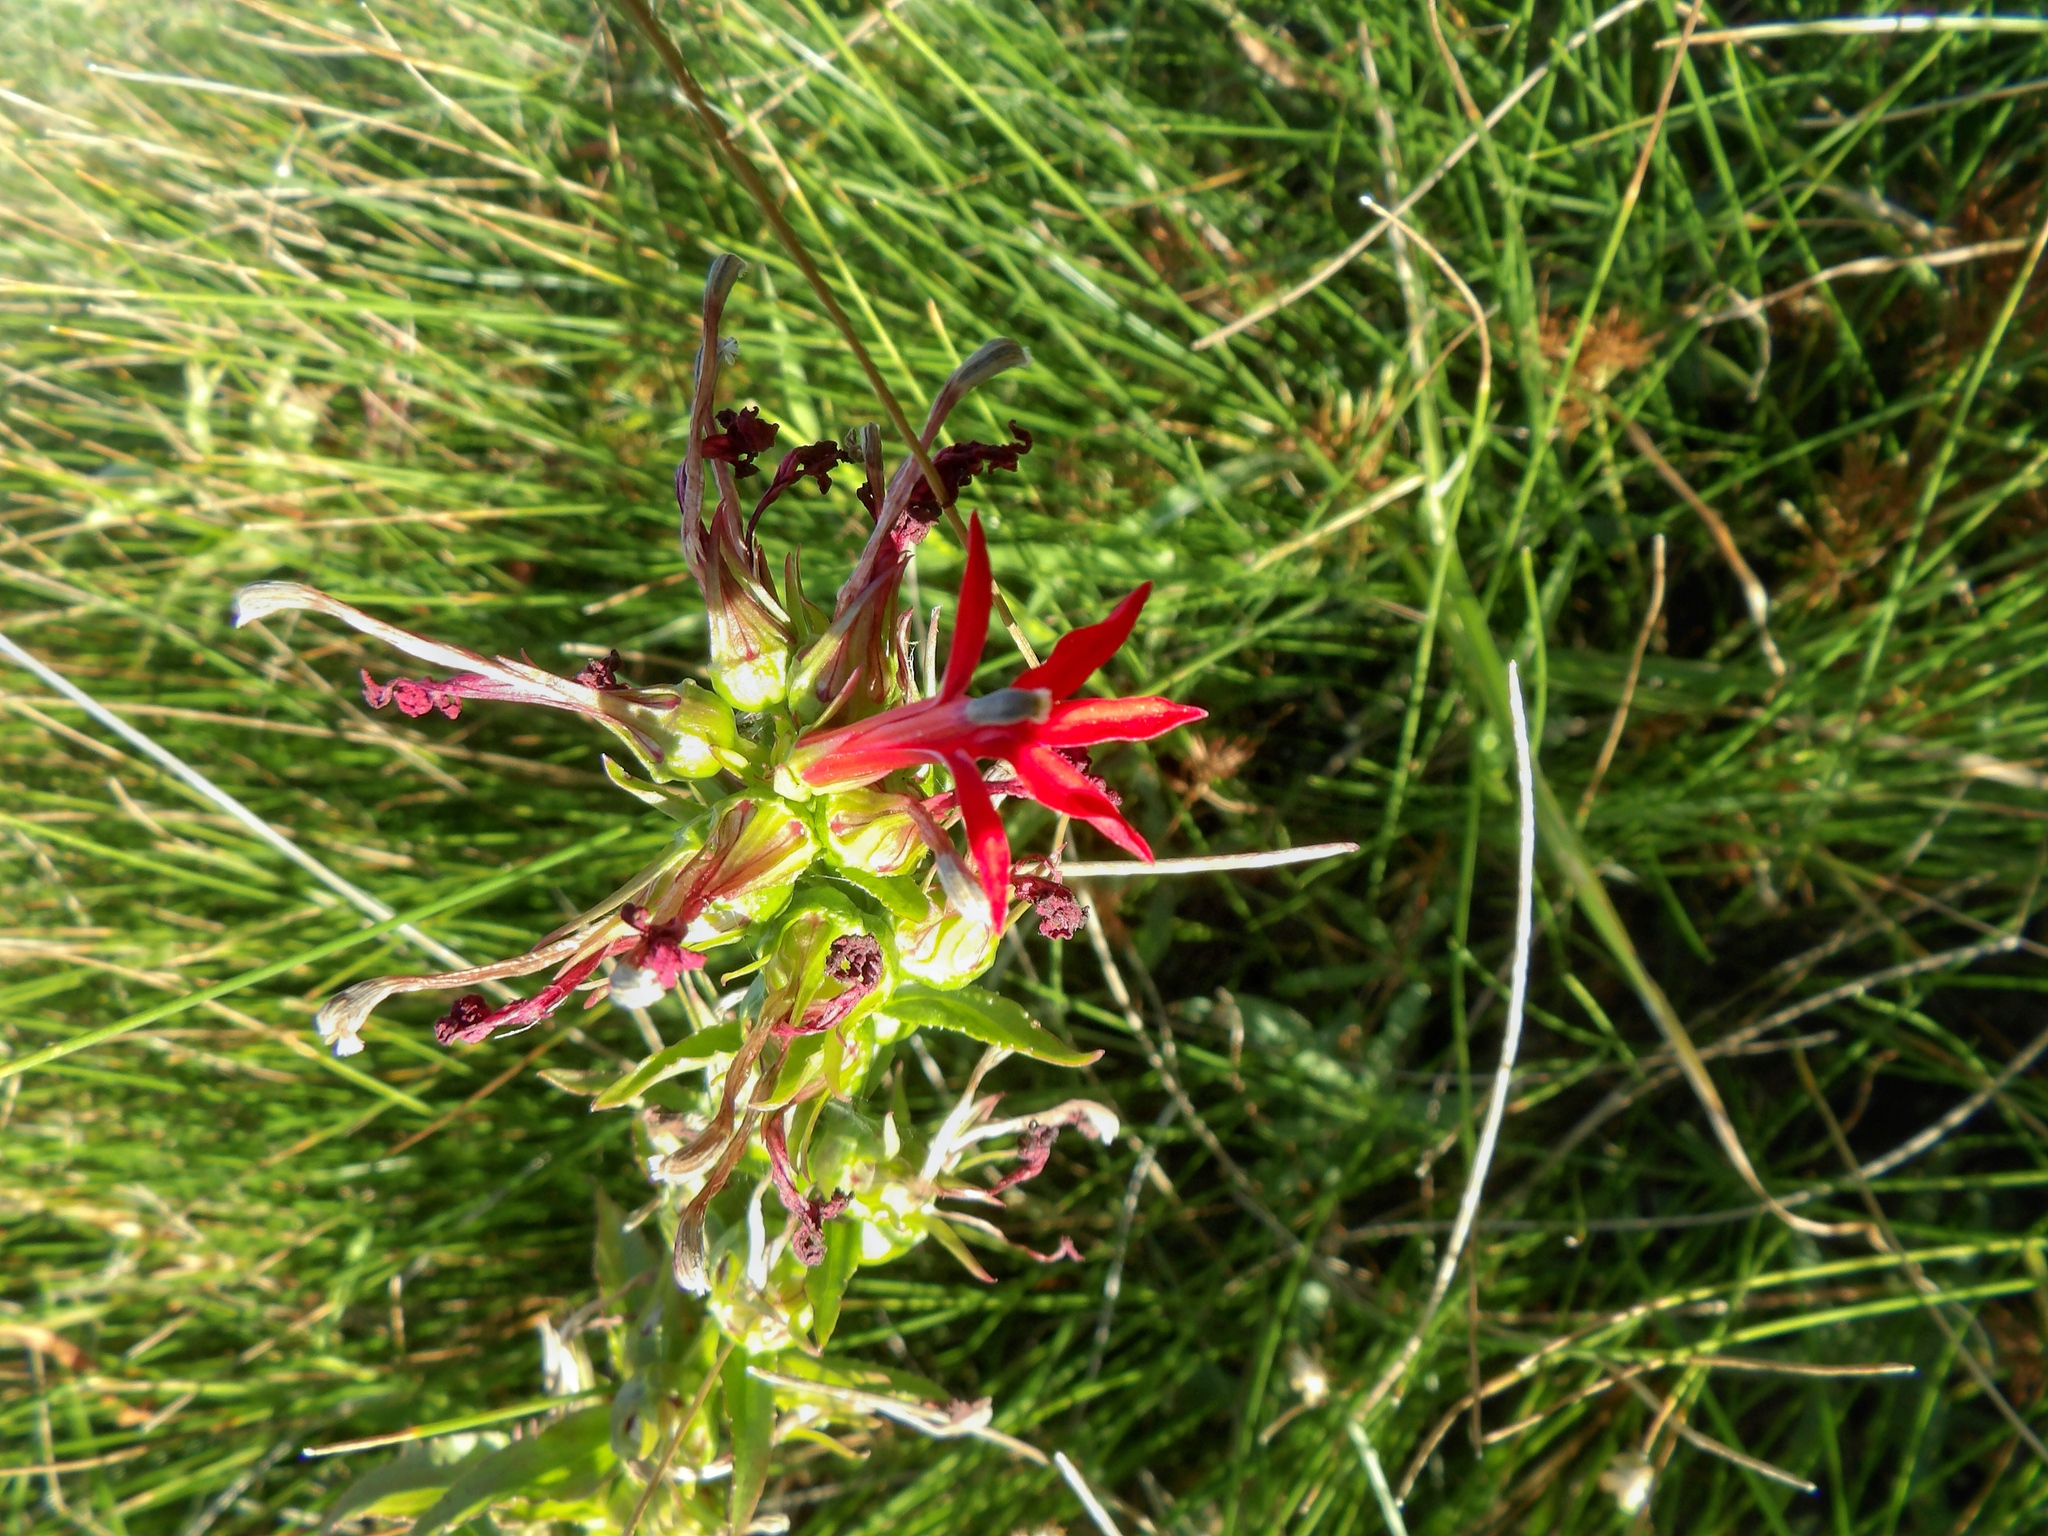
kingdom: Plantae
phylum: Tracheophyta
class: Magnoliopsida
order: Asterales
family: Campanulaceae
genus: Lobelia
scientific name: Lobelia cardinalis
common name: Cardinal flower
